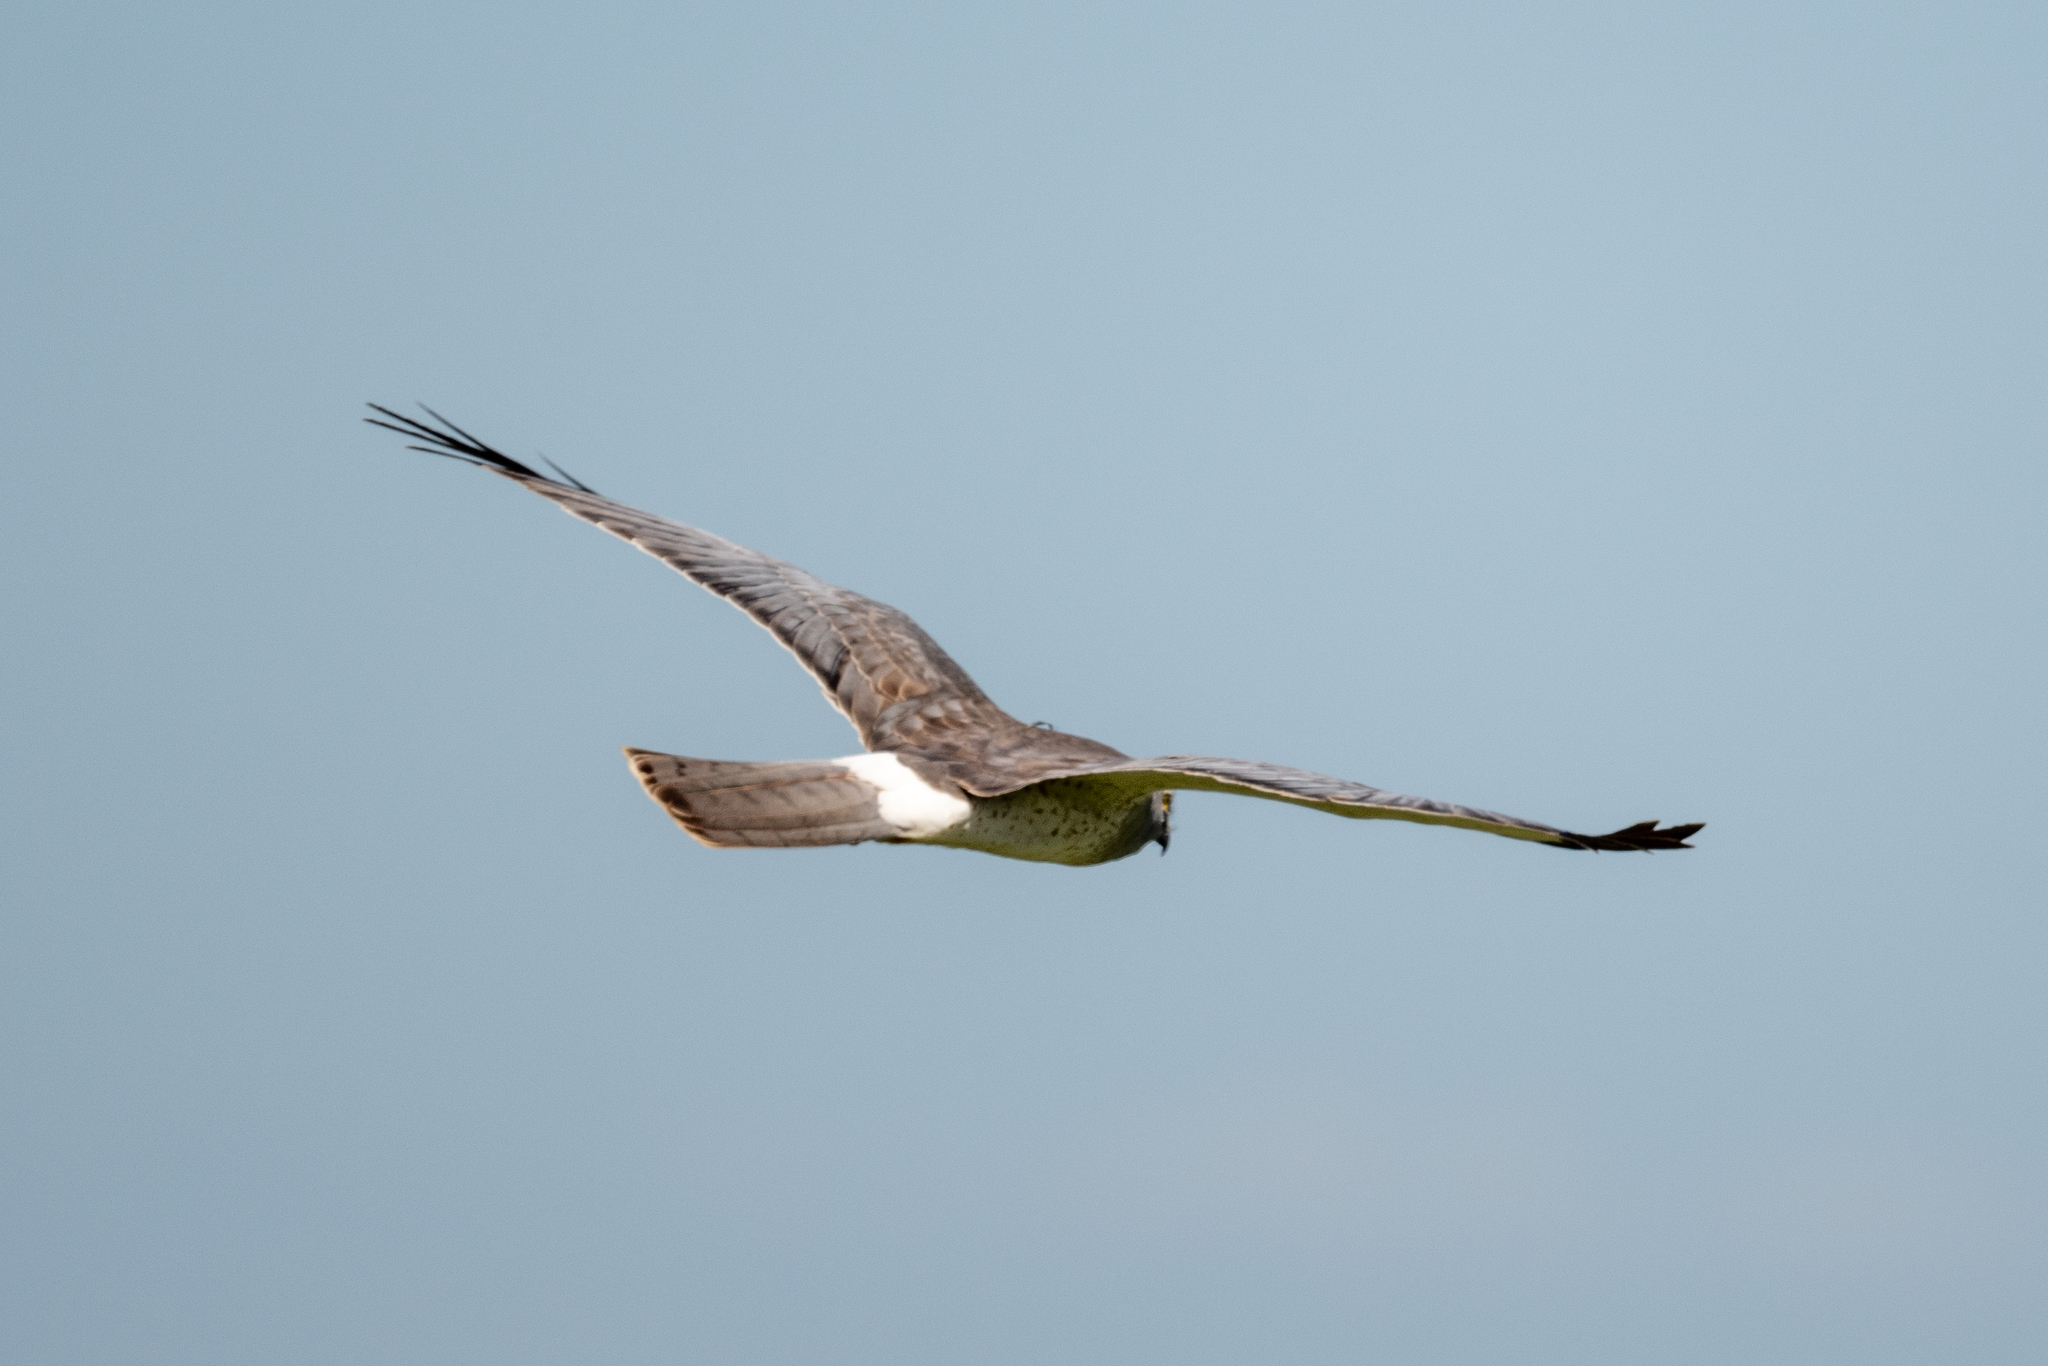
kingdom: Animalia
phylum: Chordata
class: Aves
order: Accipitriformes
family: Accipitridae
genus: Circus
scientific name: Circus cyaneus
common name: Hen harrier
